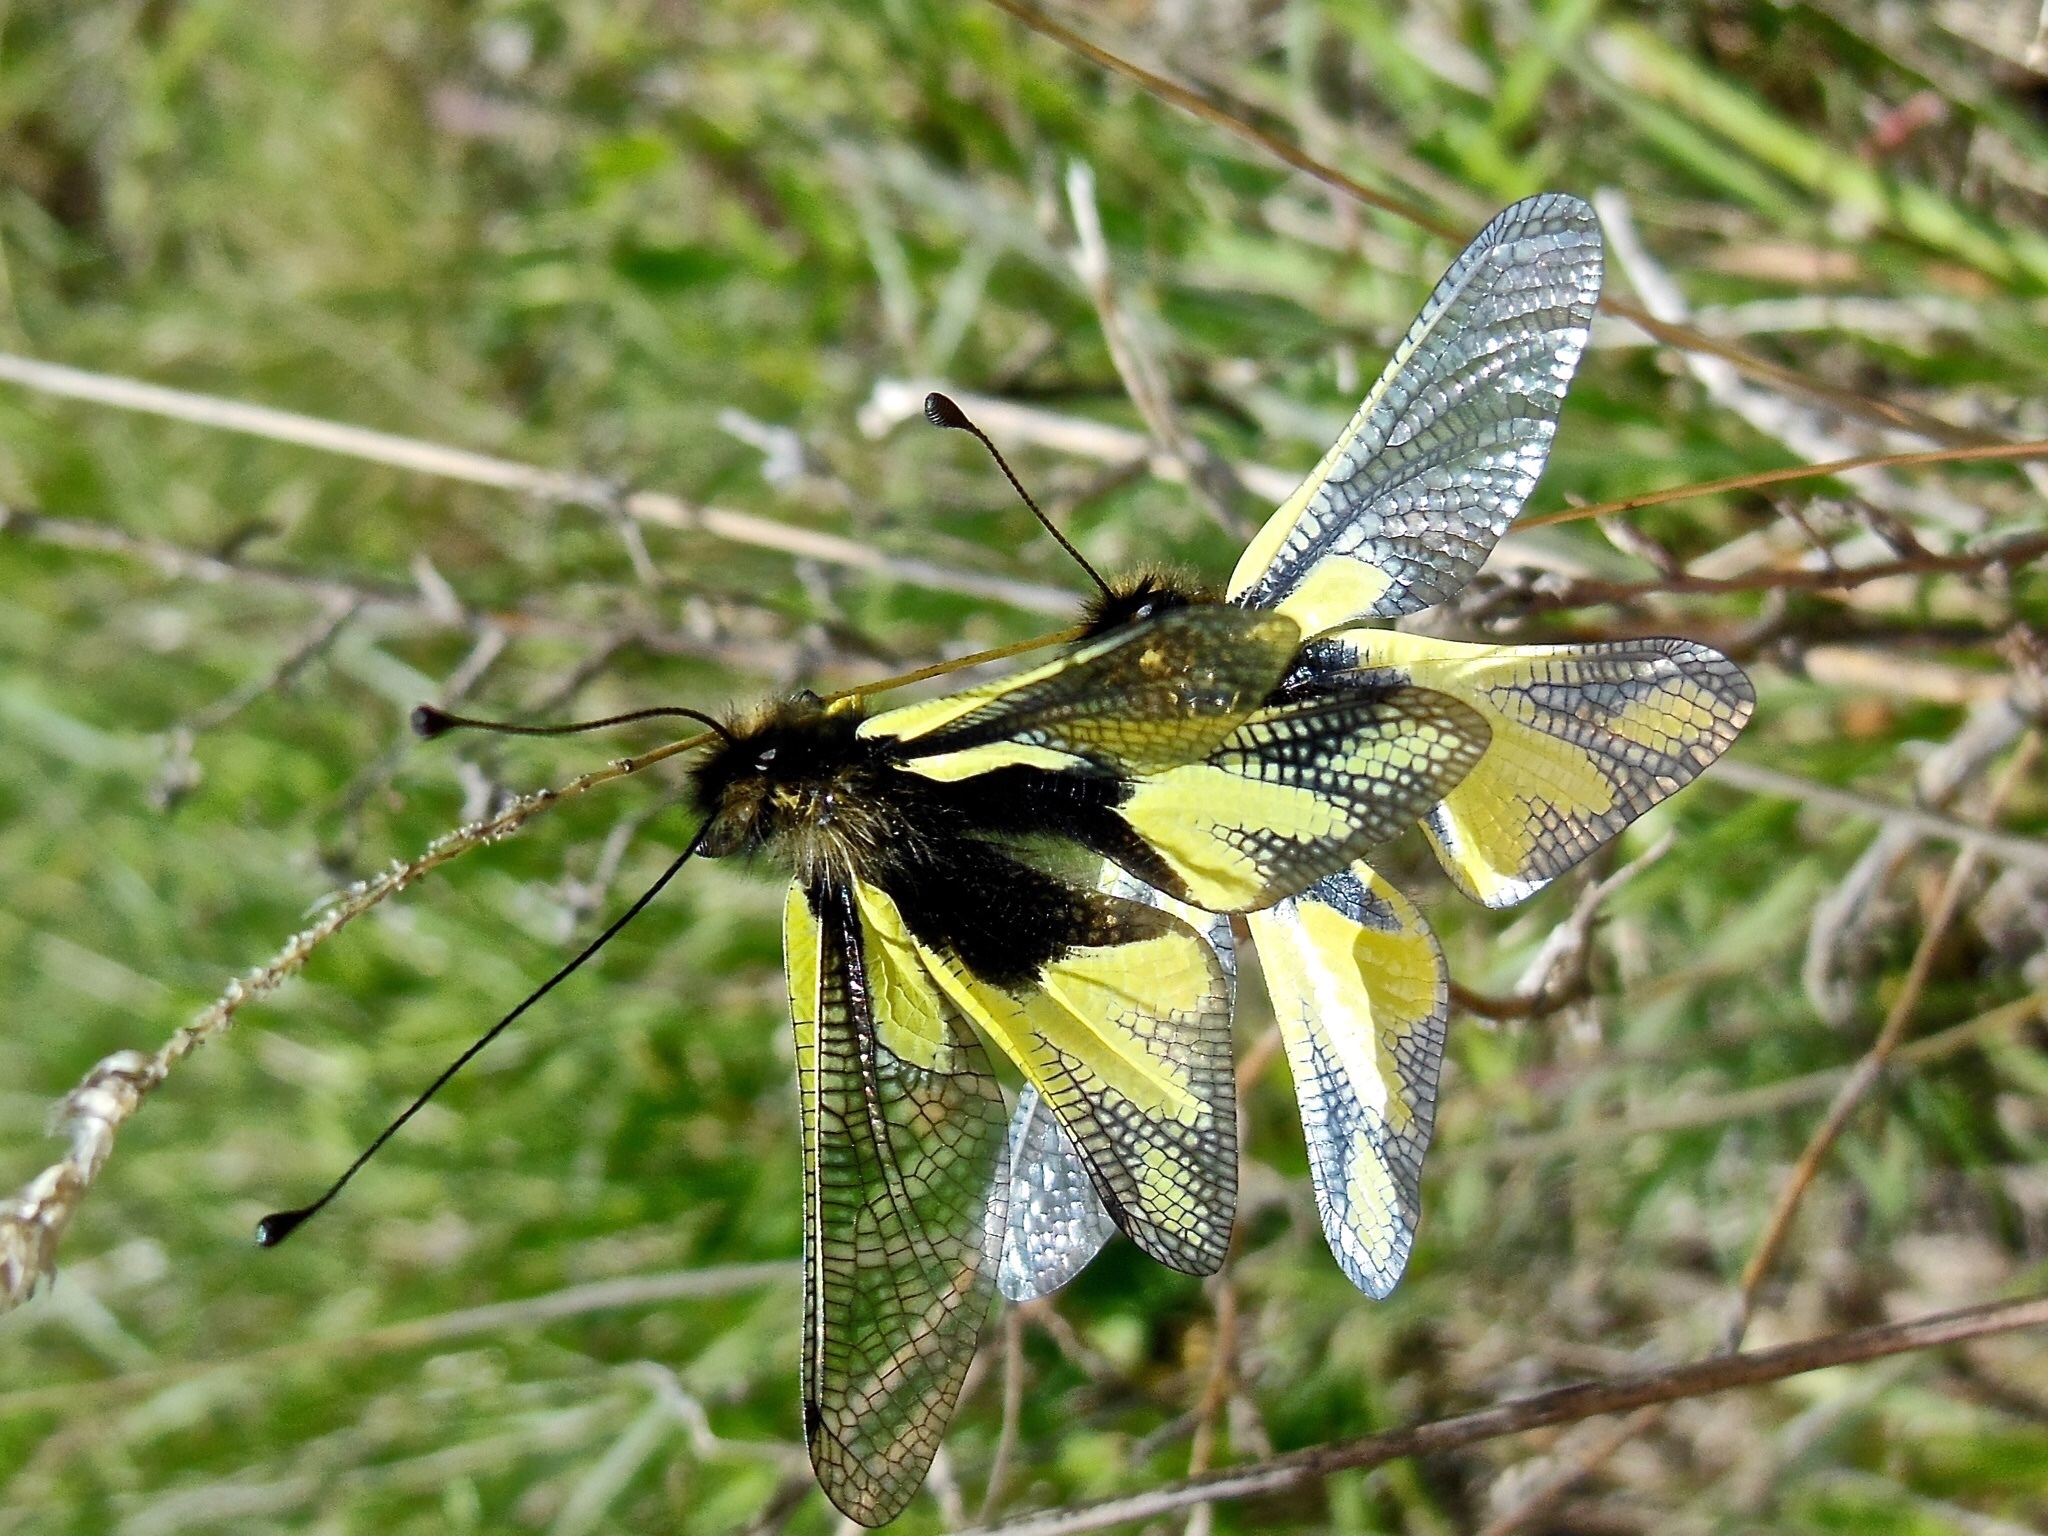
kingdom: Animalia
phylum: Arthropoda
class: Insecta
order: Neuroptera
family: Ascalaphidae
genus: Libelloides
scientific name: Libelloides coccajus
